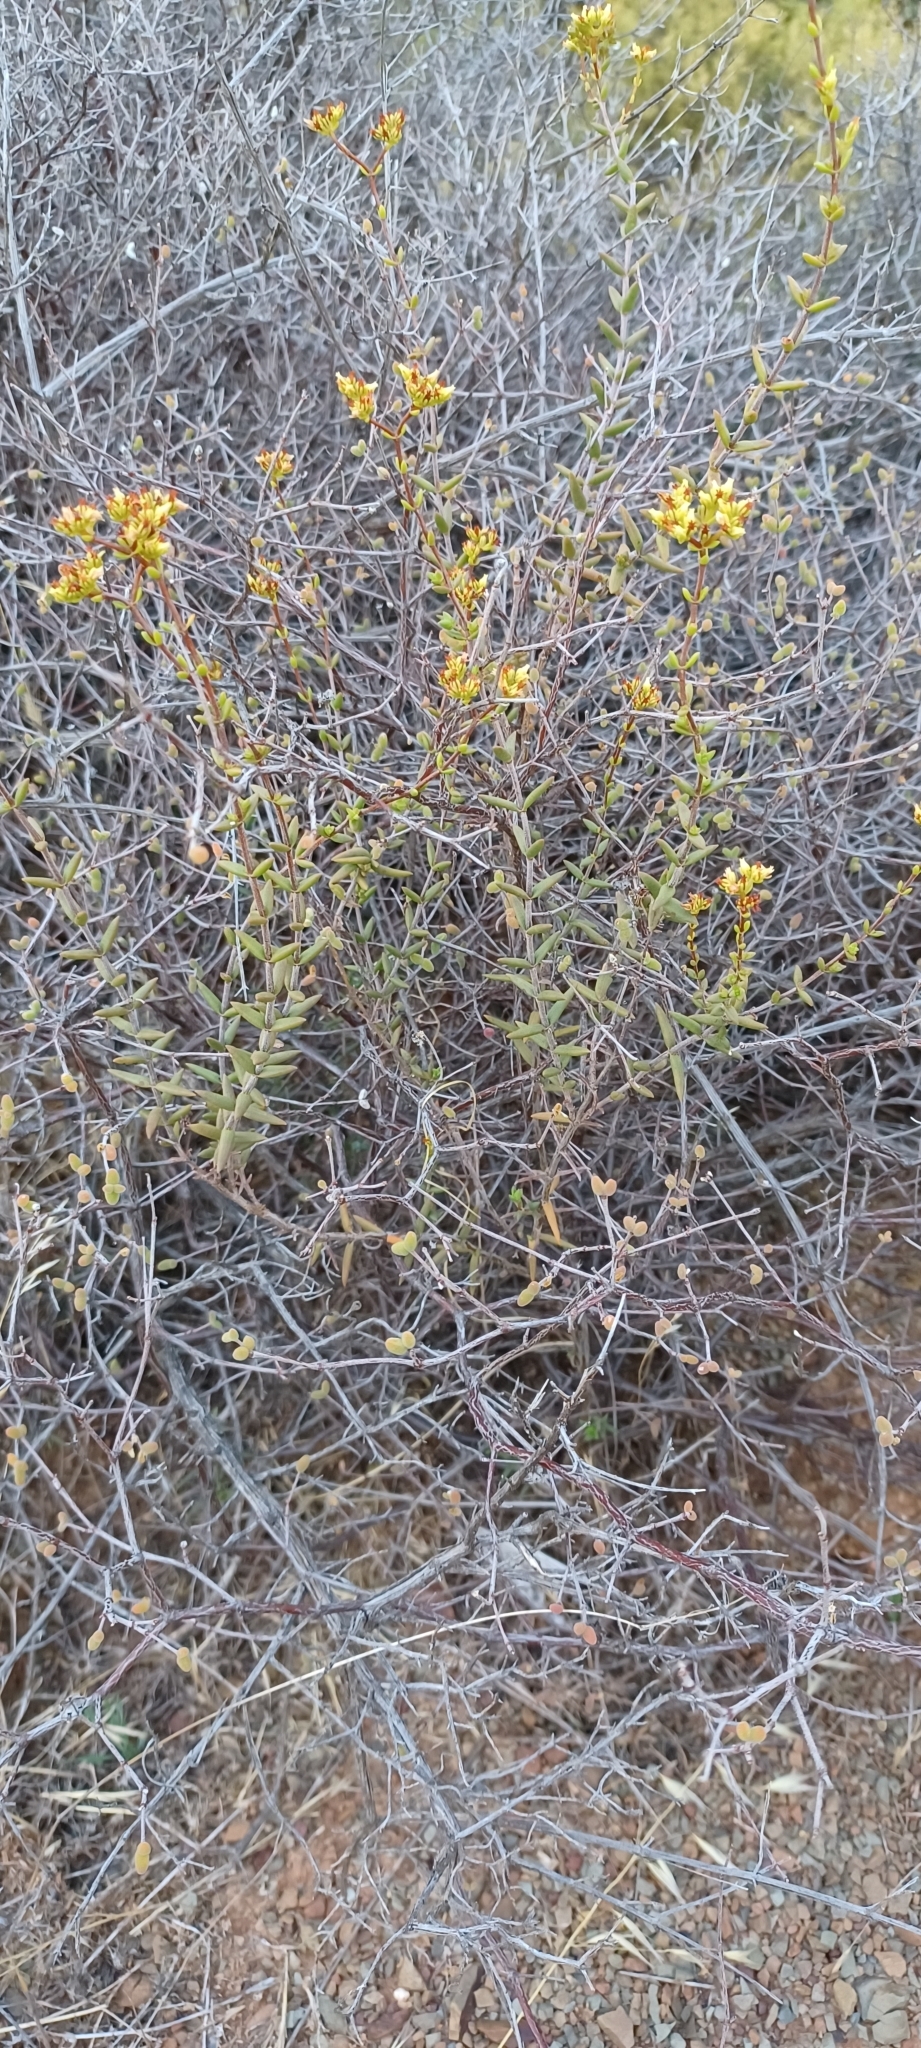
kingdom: Plantae
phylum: Tracheophyta
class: Magnoliopsida
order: Saxifragales
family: Crassulaceae
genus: Crassula
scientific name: Crassula subaphylla
